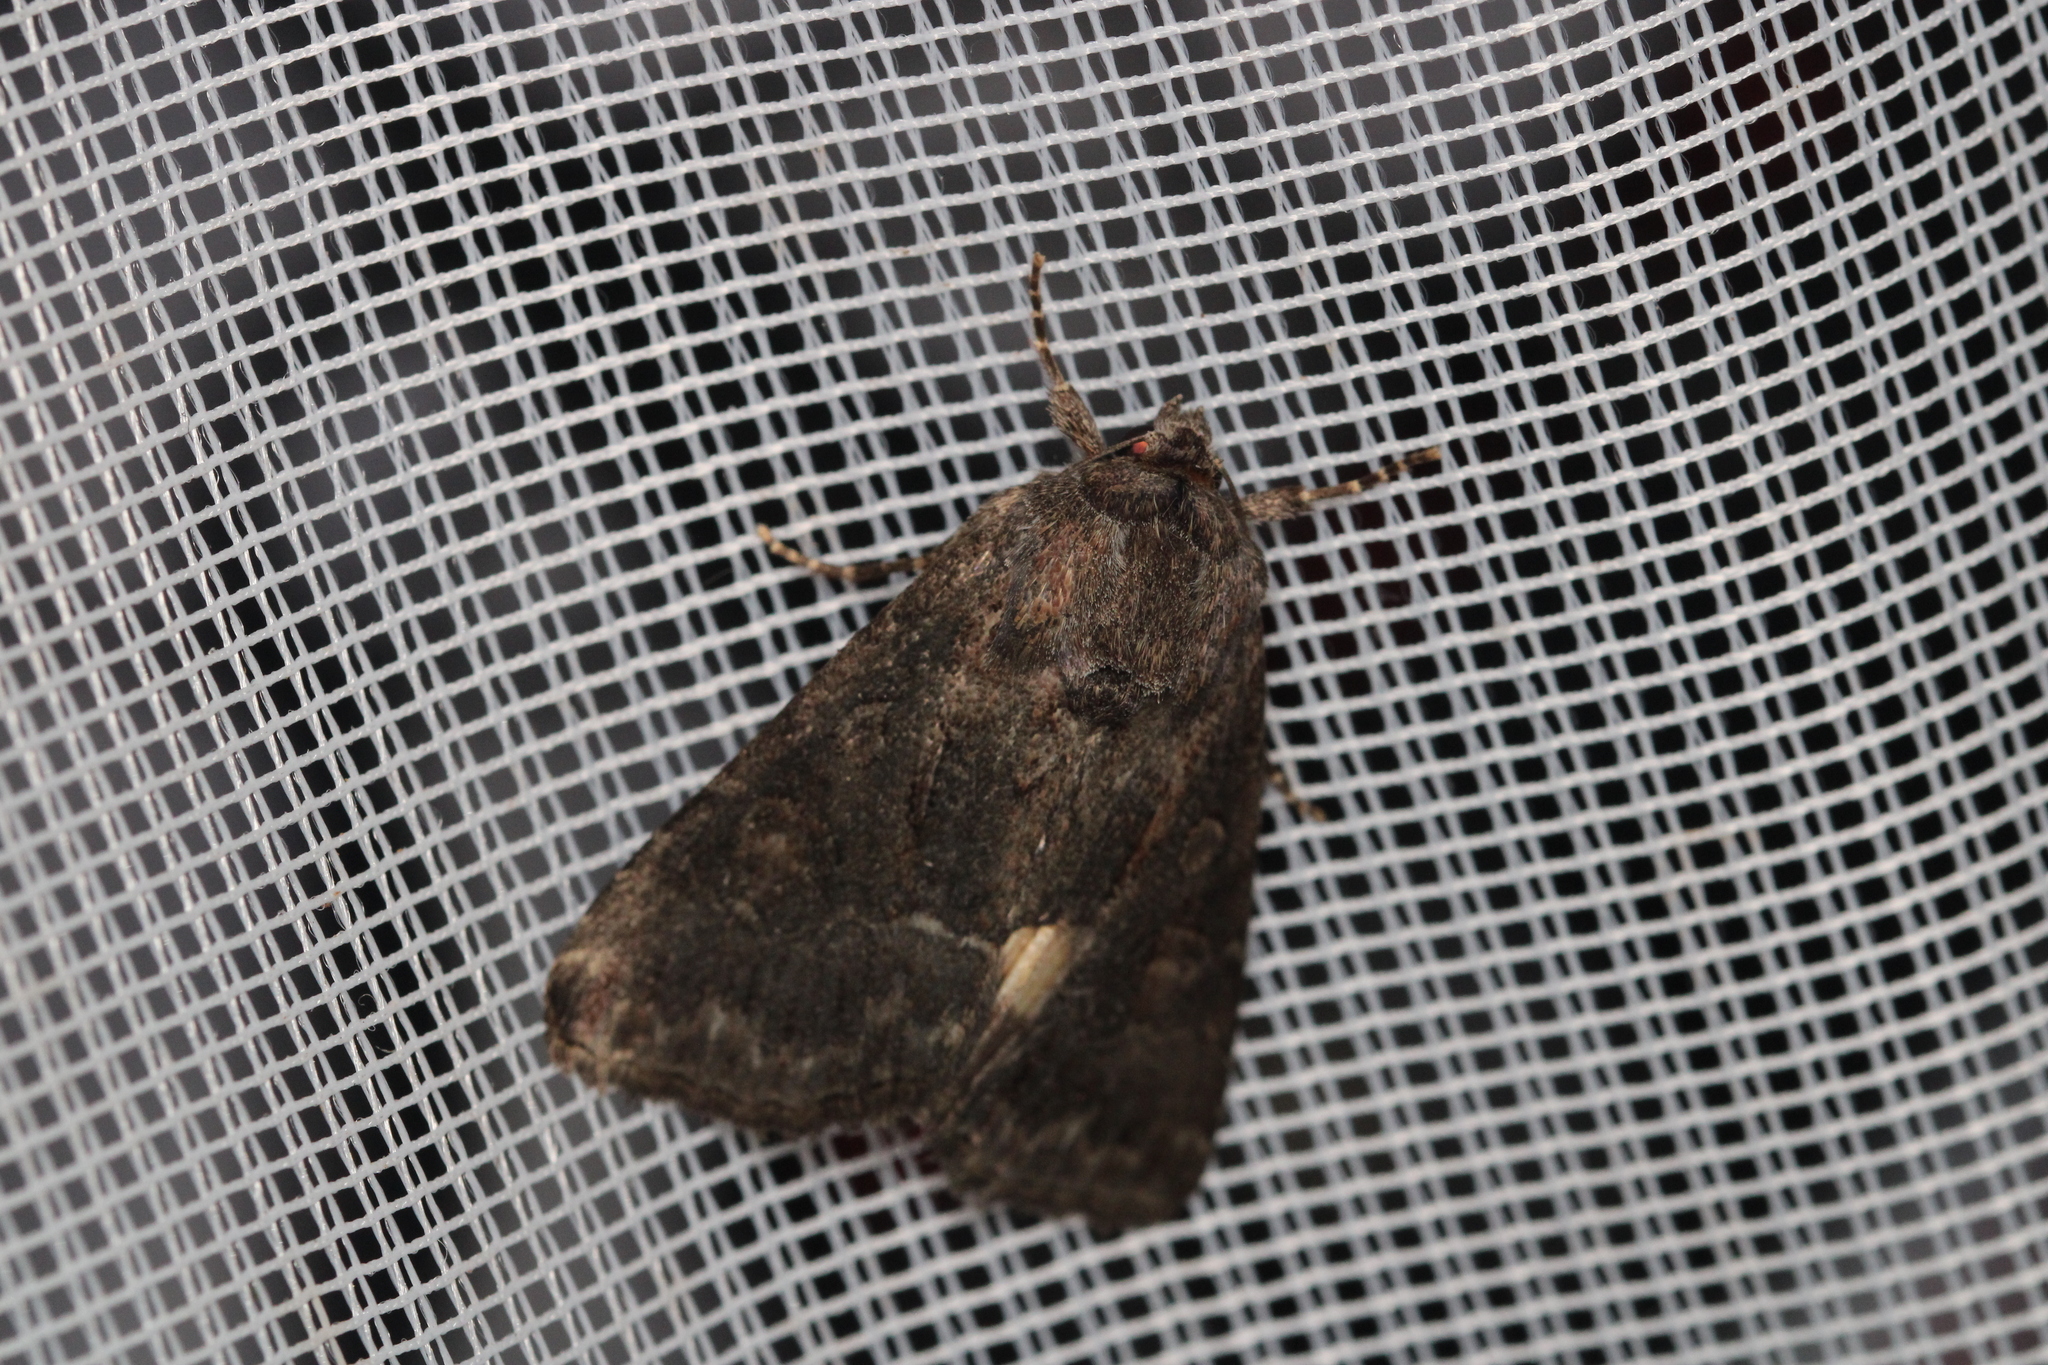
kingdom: Animalia
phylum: Arthropoda
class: Insecta
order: Lepidoptera
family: Noctuidae
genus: Thalpophila
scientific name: Thalpophila matura
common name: Straw underwing
